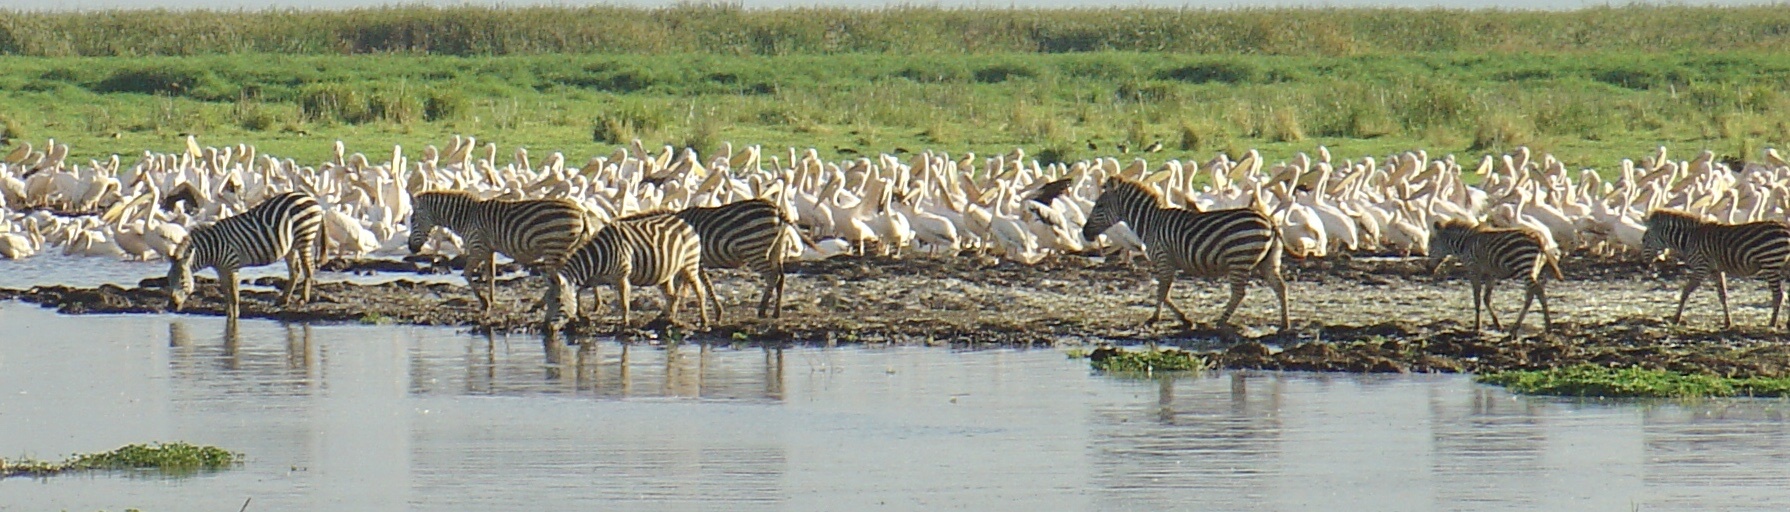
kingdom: Animalia
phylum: Chordata
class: Mammalia
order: Perissodactyla
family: Equidae
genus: Equus
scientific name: Equus quagga
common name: Plains zebra
